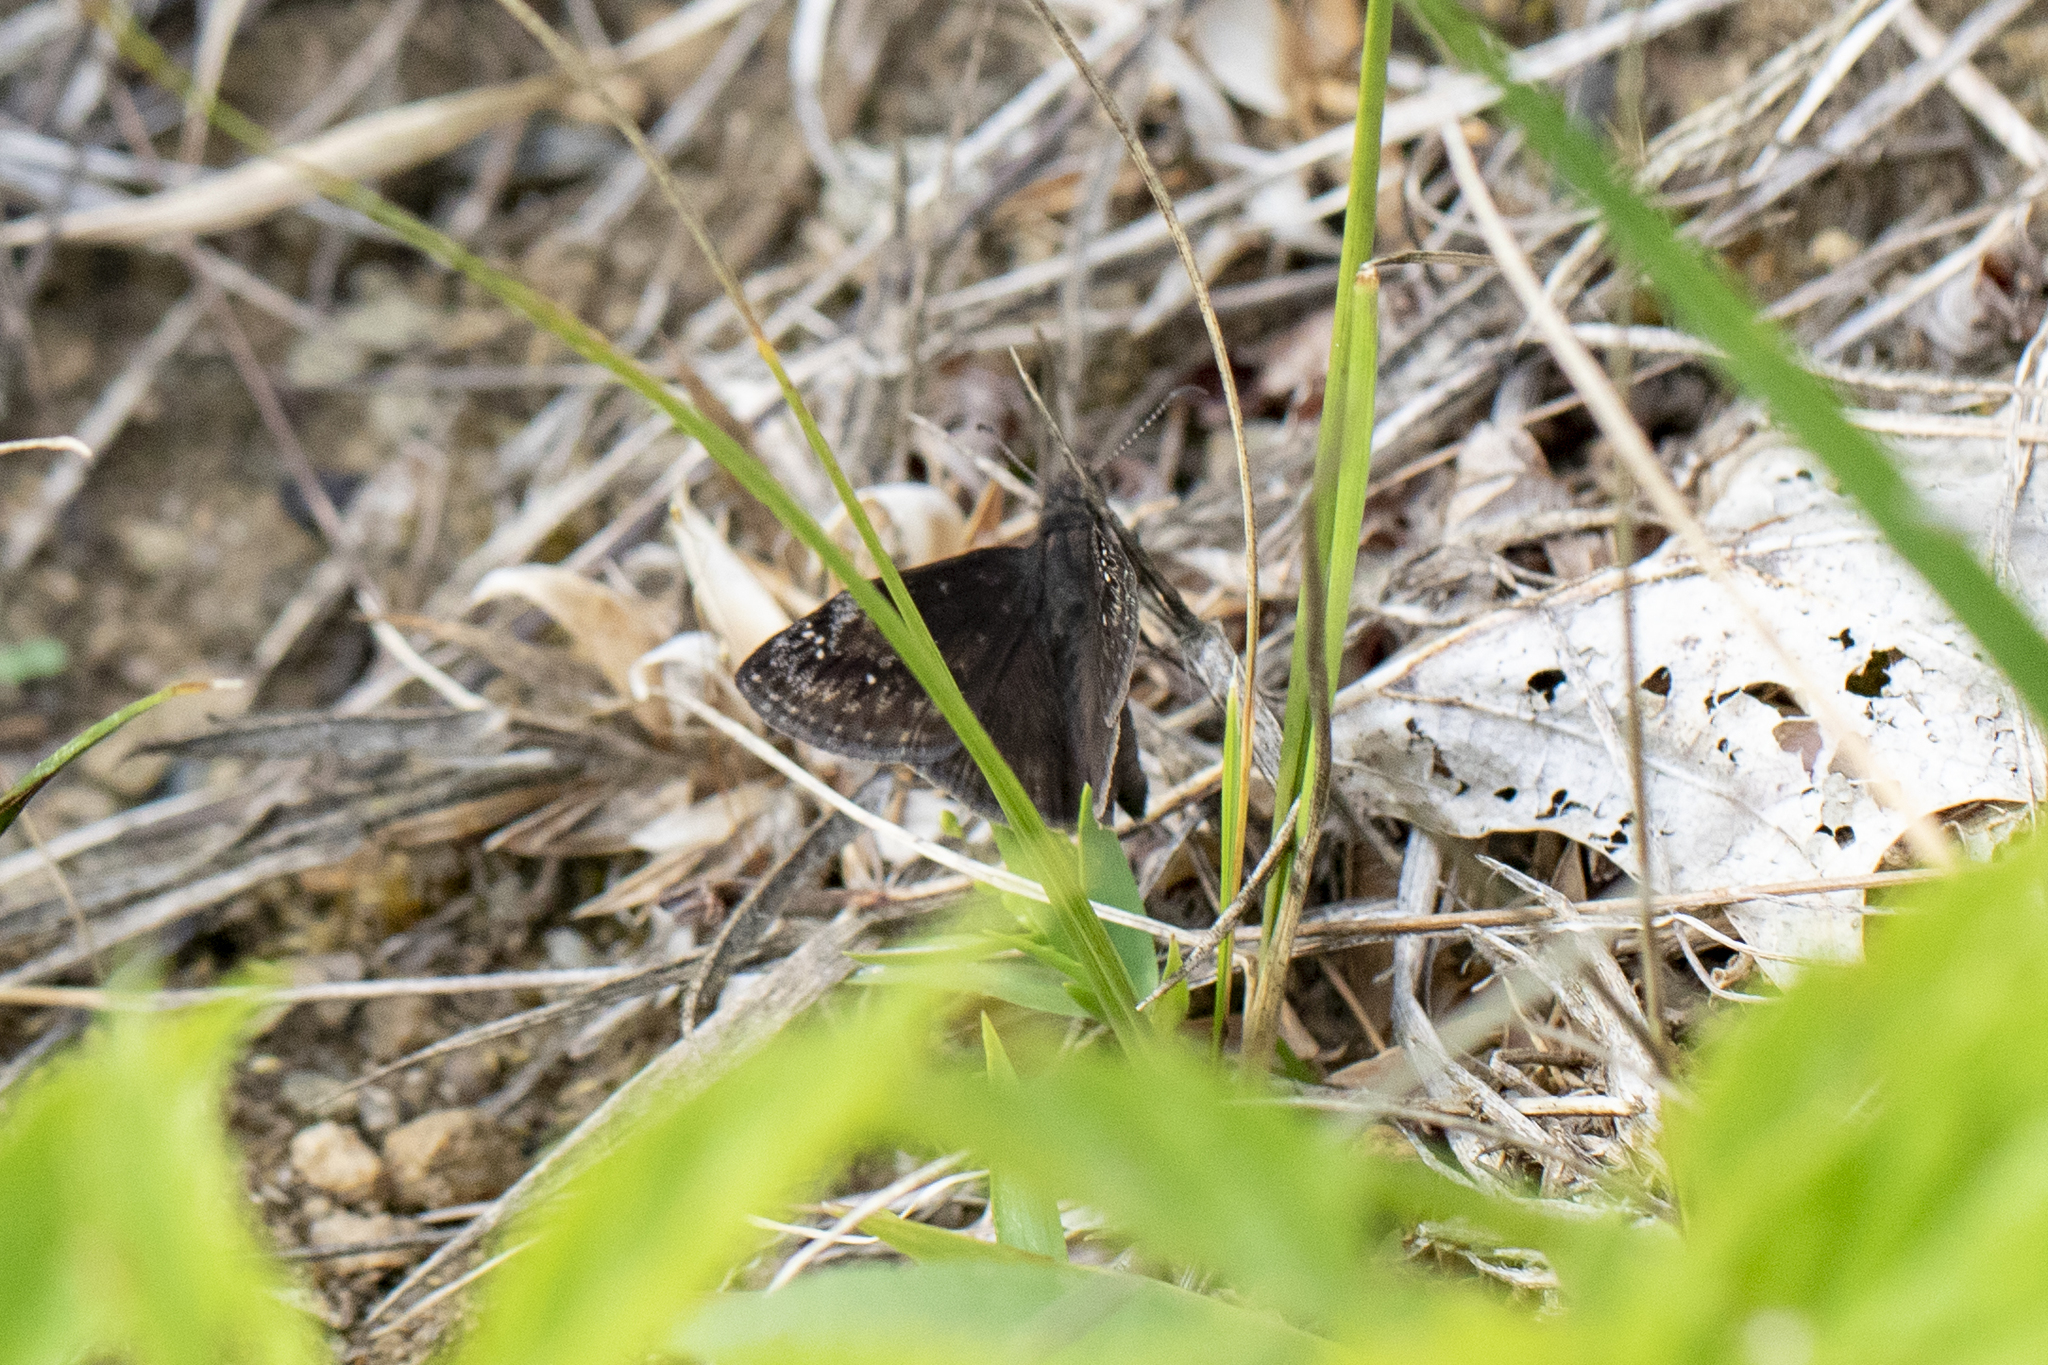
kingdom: Animalia
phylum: Arthropoda
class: Insecta
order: Lepidoptera
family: Hesperiidae
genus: Erynnis
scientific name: Erynnis baptisiae
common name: Wild indigo duskywing
